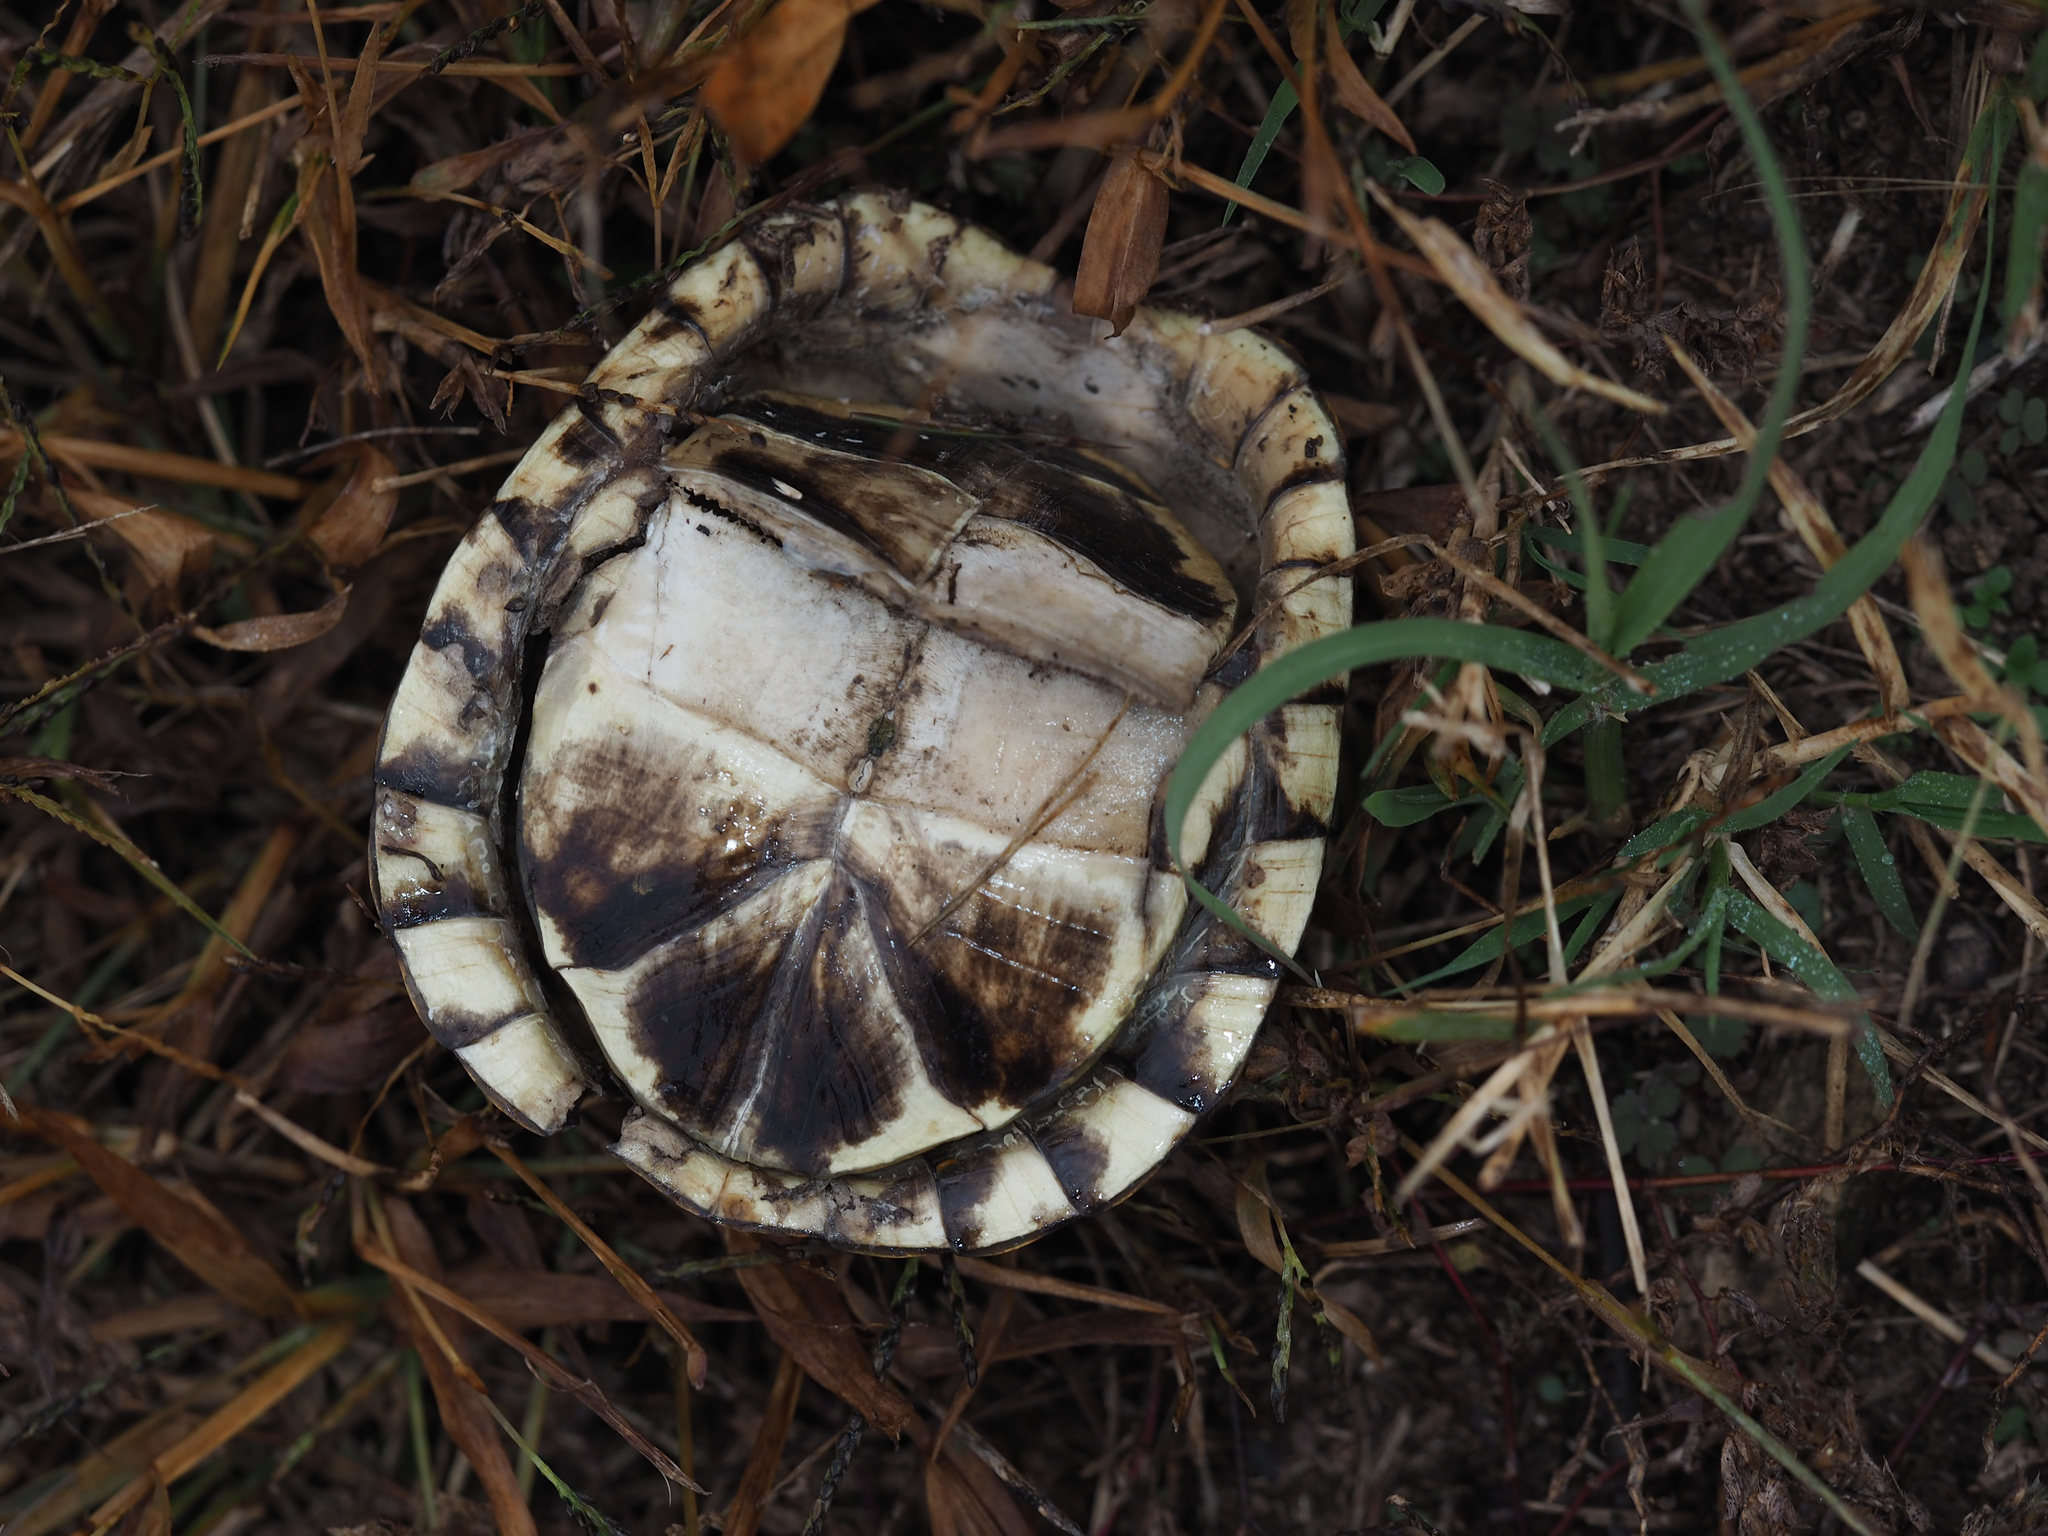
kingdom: Animalia
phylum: Chordata
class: Testudines
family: Emydidae
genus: Terrapene
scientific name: Terrapene carolina
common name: Common box turtle
